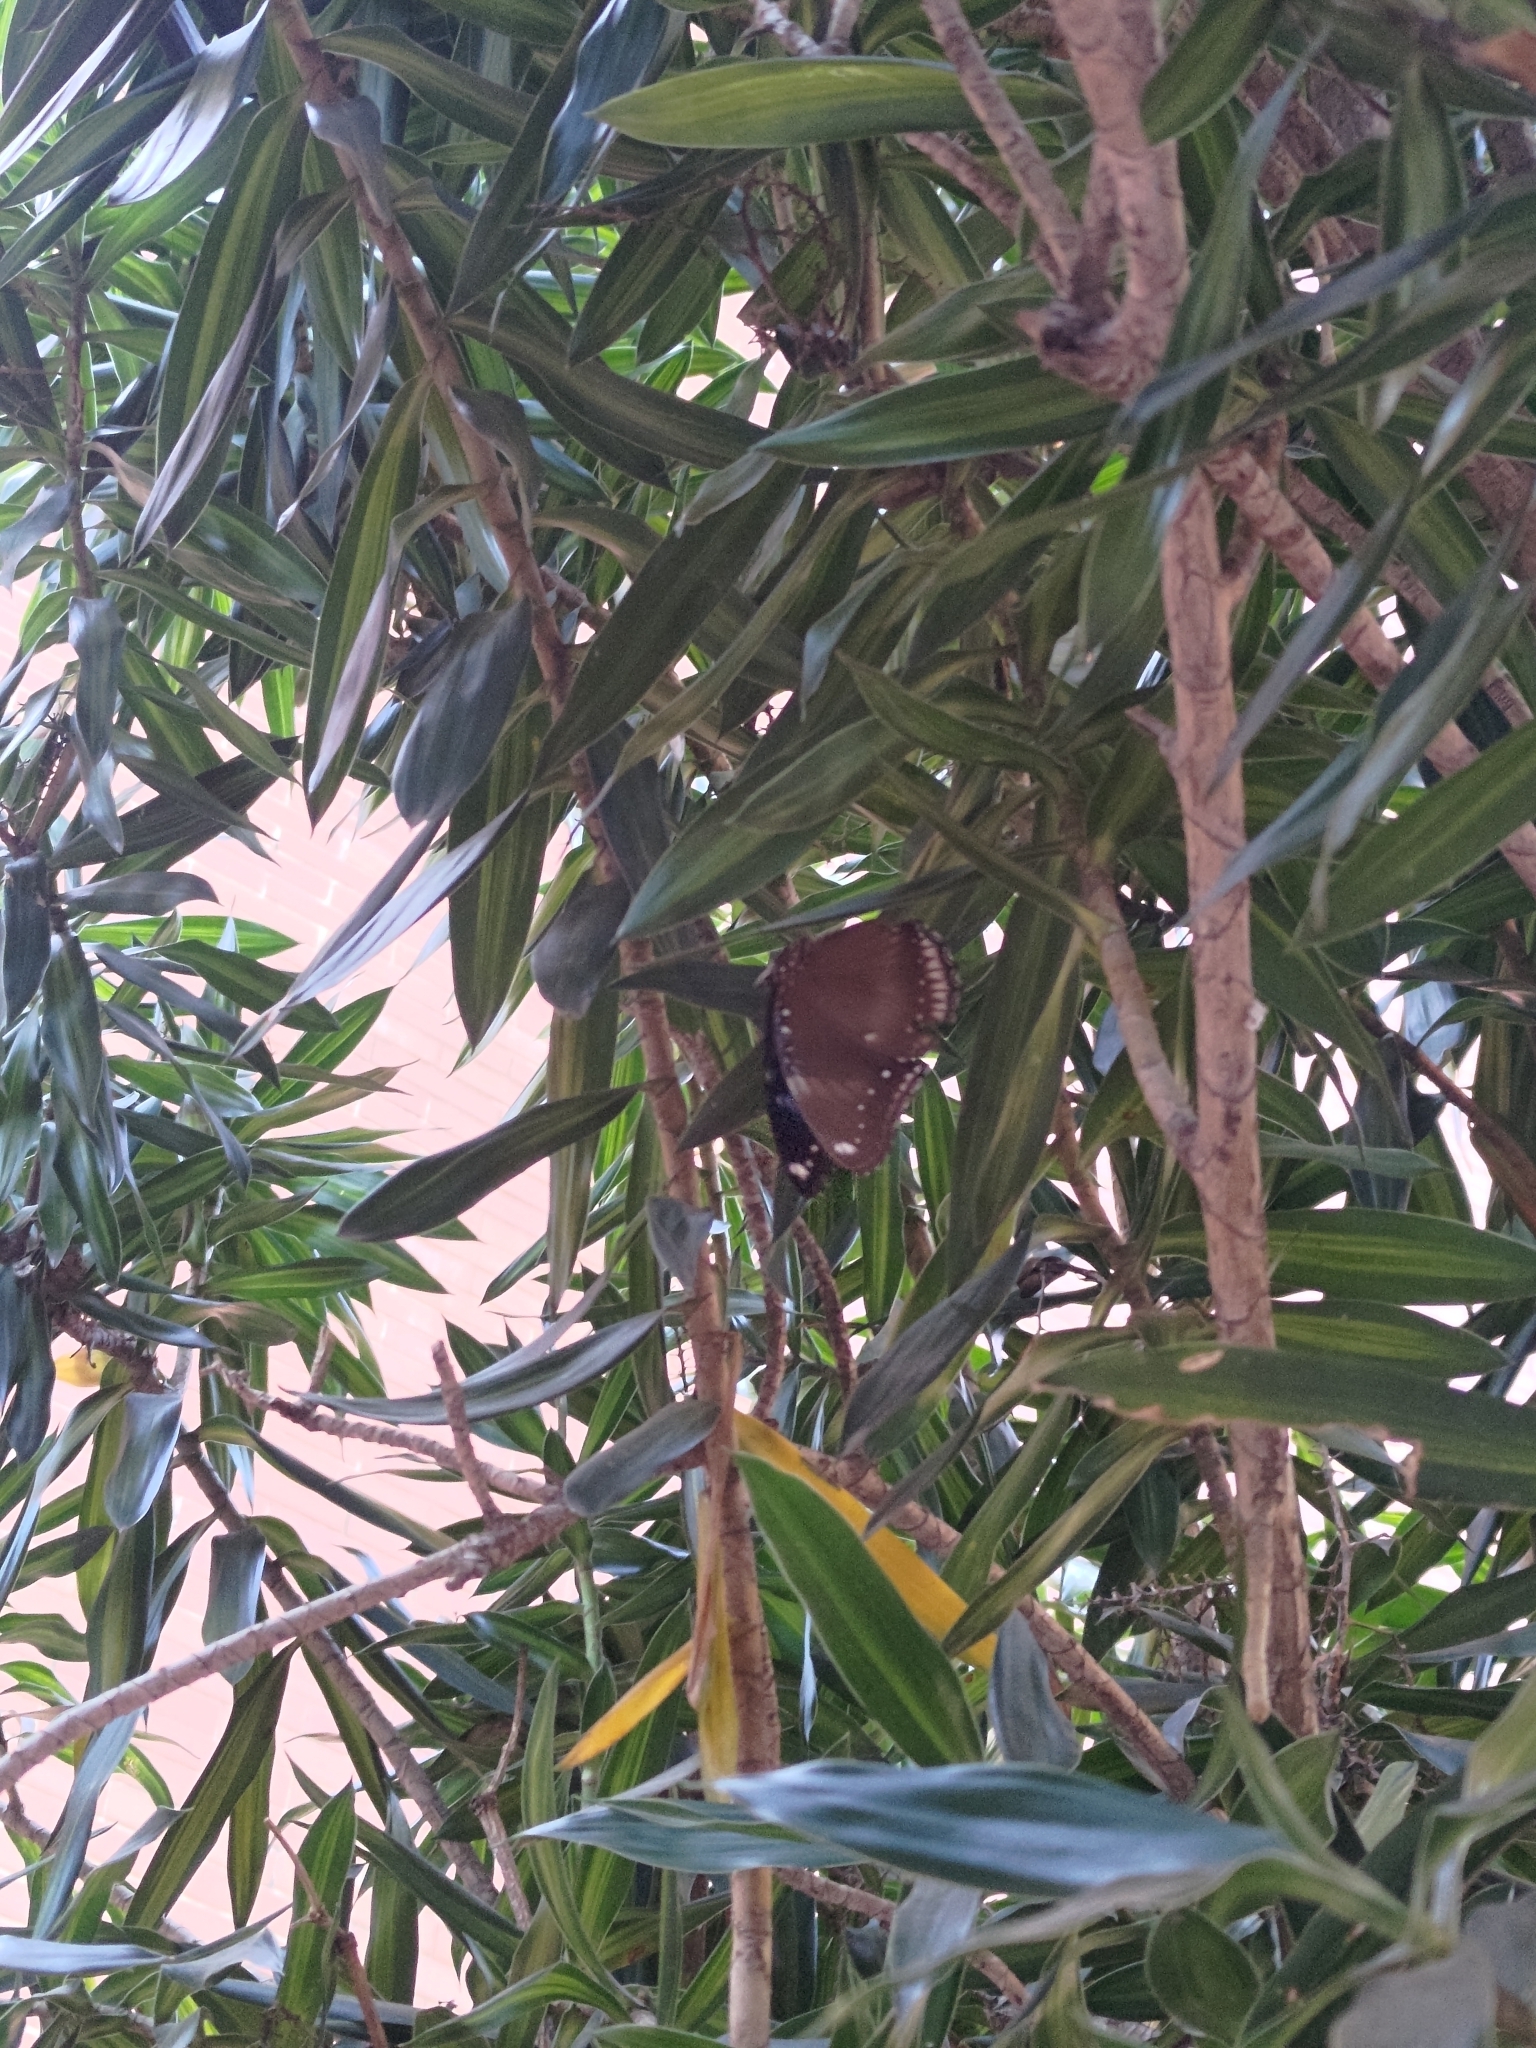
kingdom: Animalia
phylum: Arthropoda
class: Insecta
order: Lepidoptera
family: Nymphalidae
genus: Hypolimnas
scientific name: Hypolimnas bolina
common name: Great eggfly
